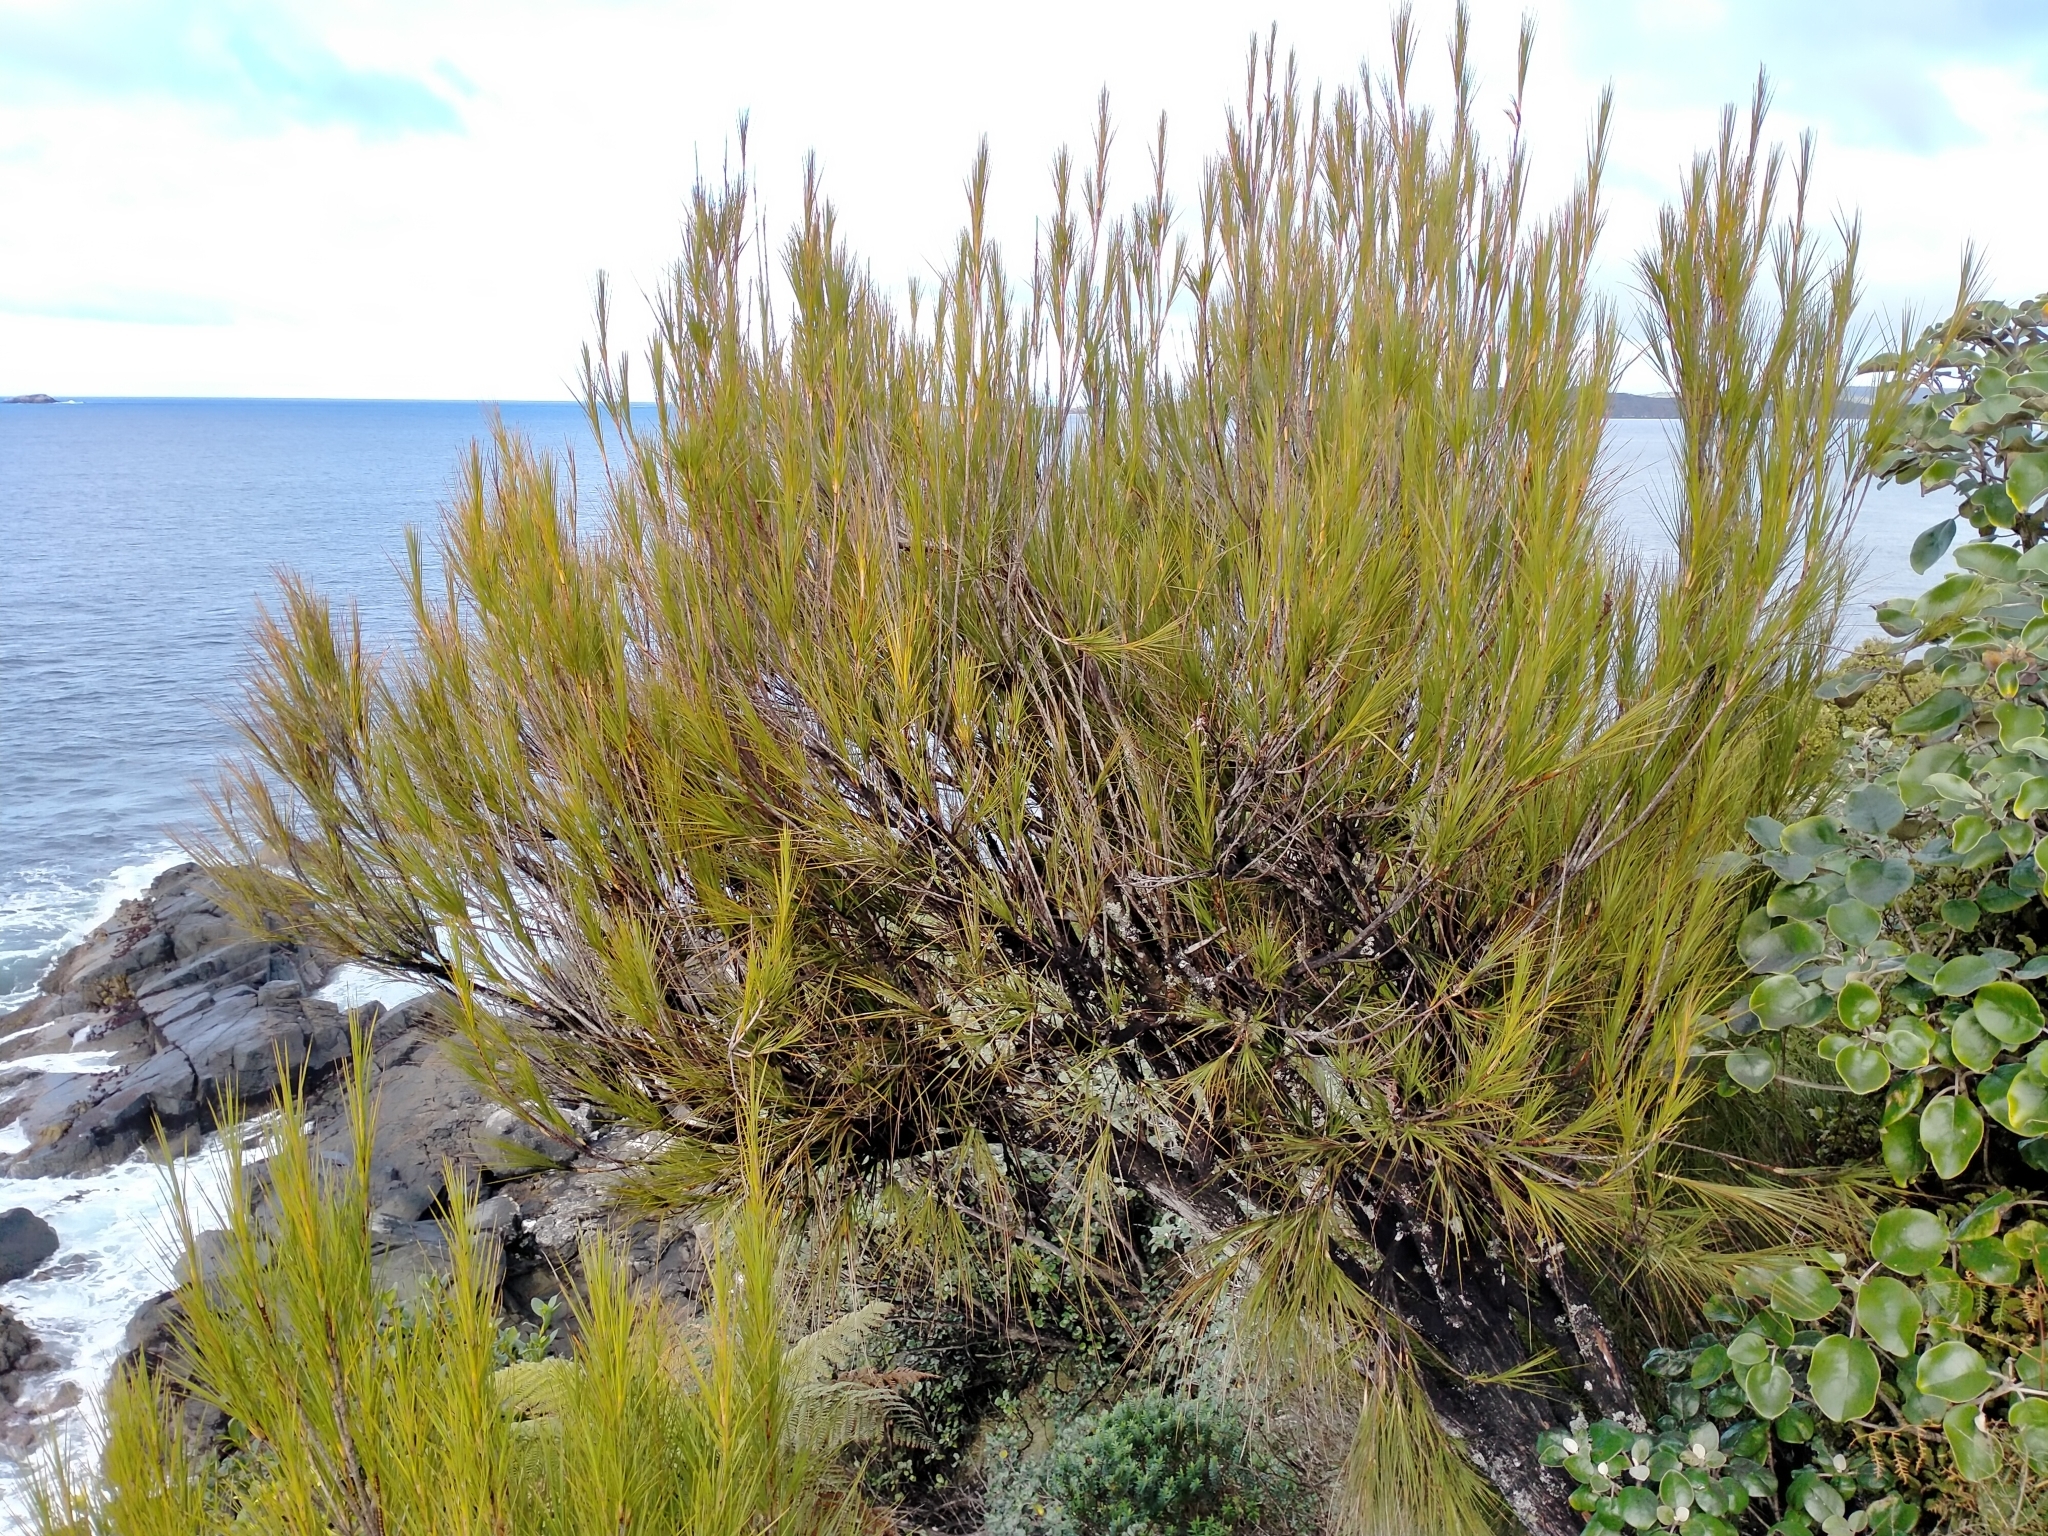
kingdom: Plantae
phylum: Tracheophyta
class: Magnoliopsida
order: Ericales
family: Ericaceae
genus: Dracophyllum
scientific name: Dracophyllum longifolium
